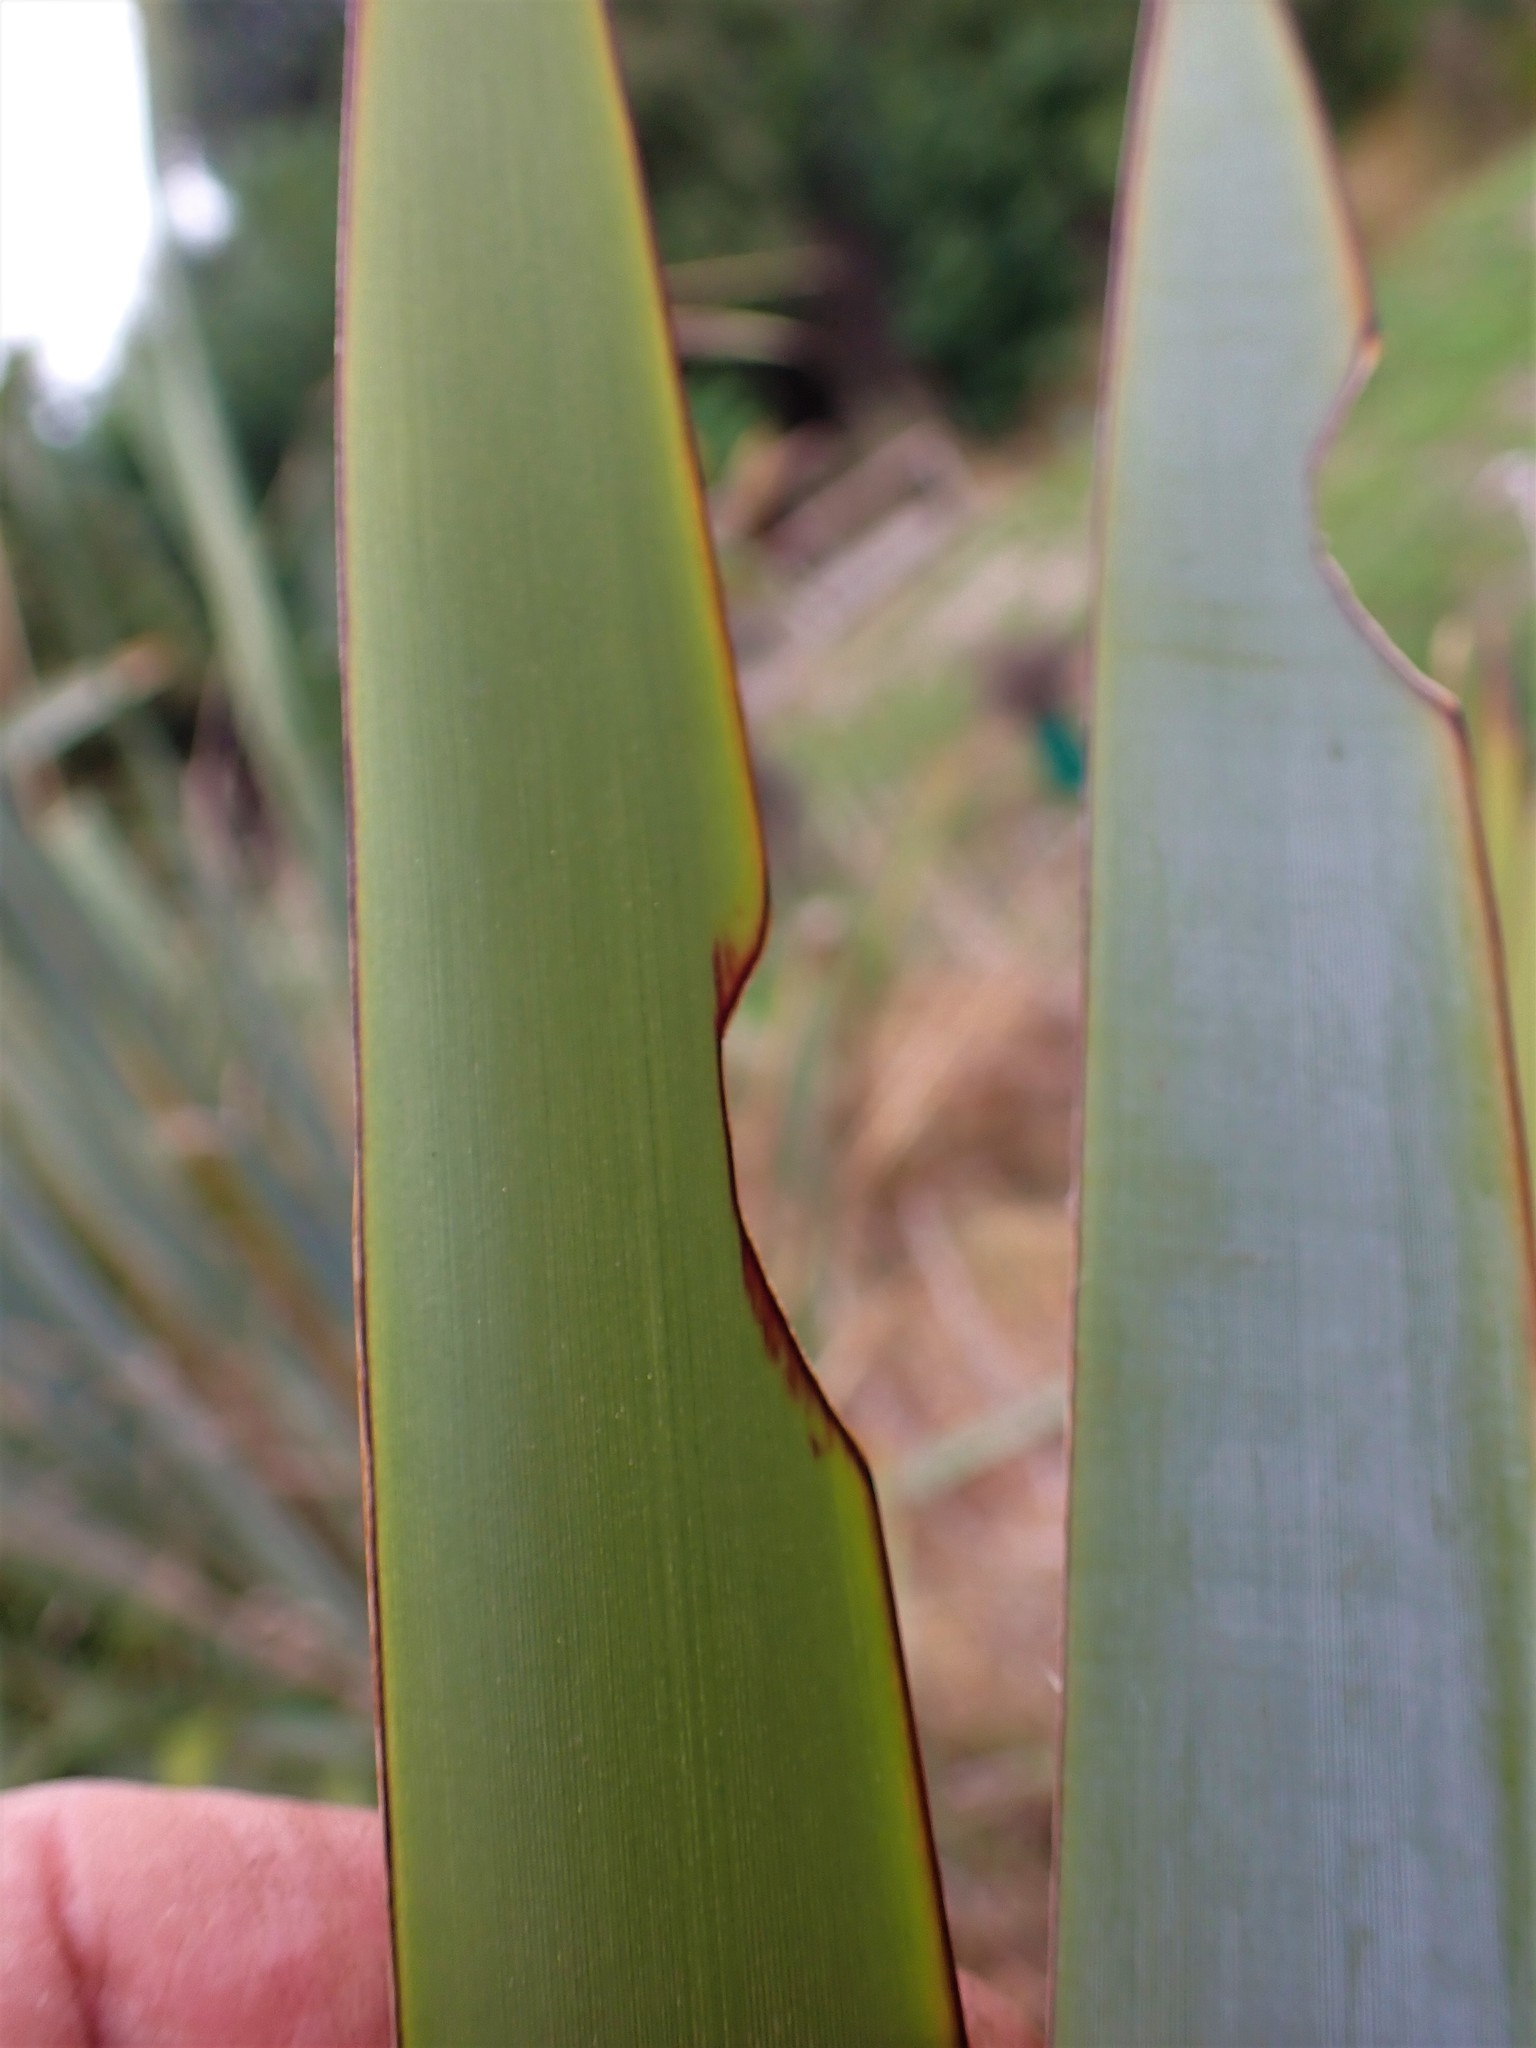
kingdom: Animalia
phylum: Arthropoda
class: Insecta
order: Lepidoptera
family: Noctuidae
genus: Ichneutica
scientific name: Ichneutica
